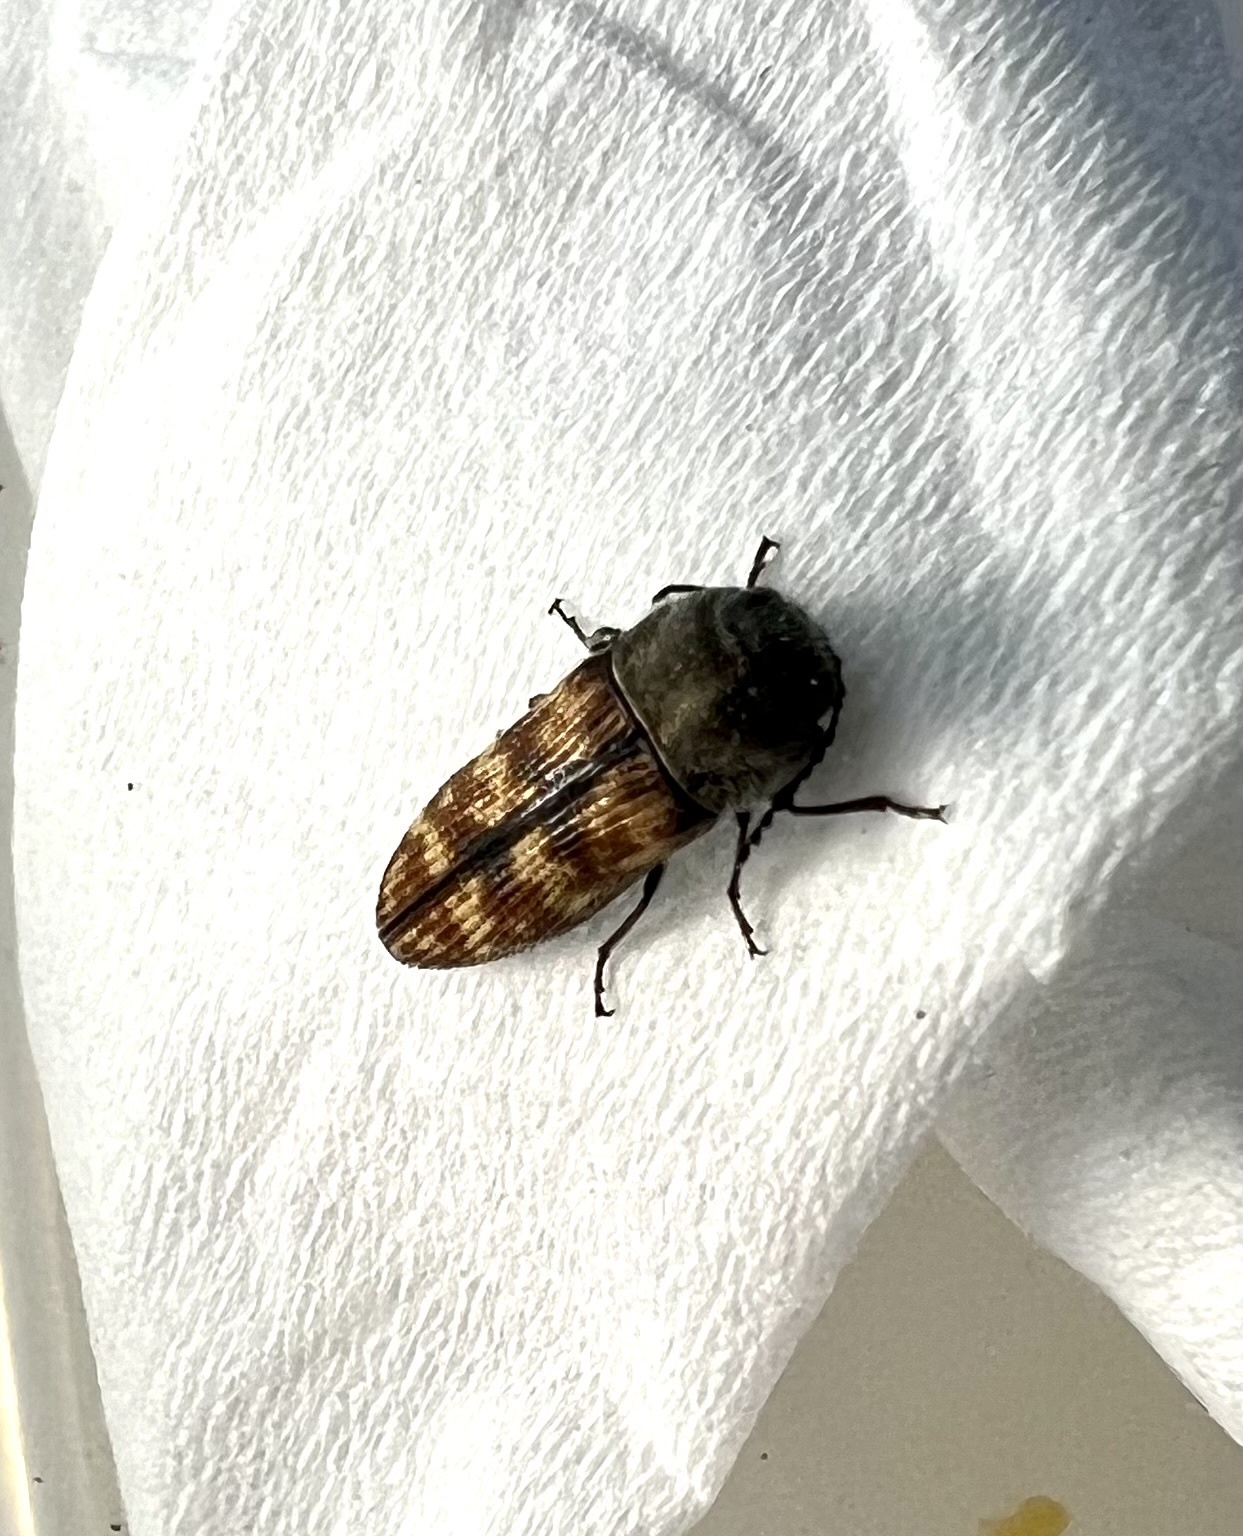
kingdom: Animalia
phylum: Arthropoda
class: Insecta
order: Coleoptera
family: Buprestidae
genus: Acmaeodera
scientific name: Acmaeodera cribricollis
